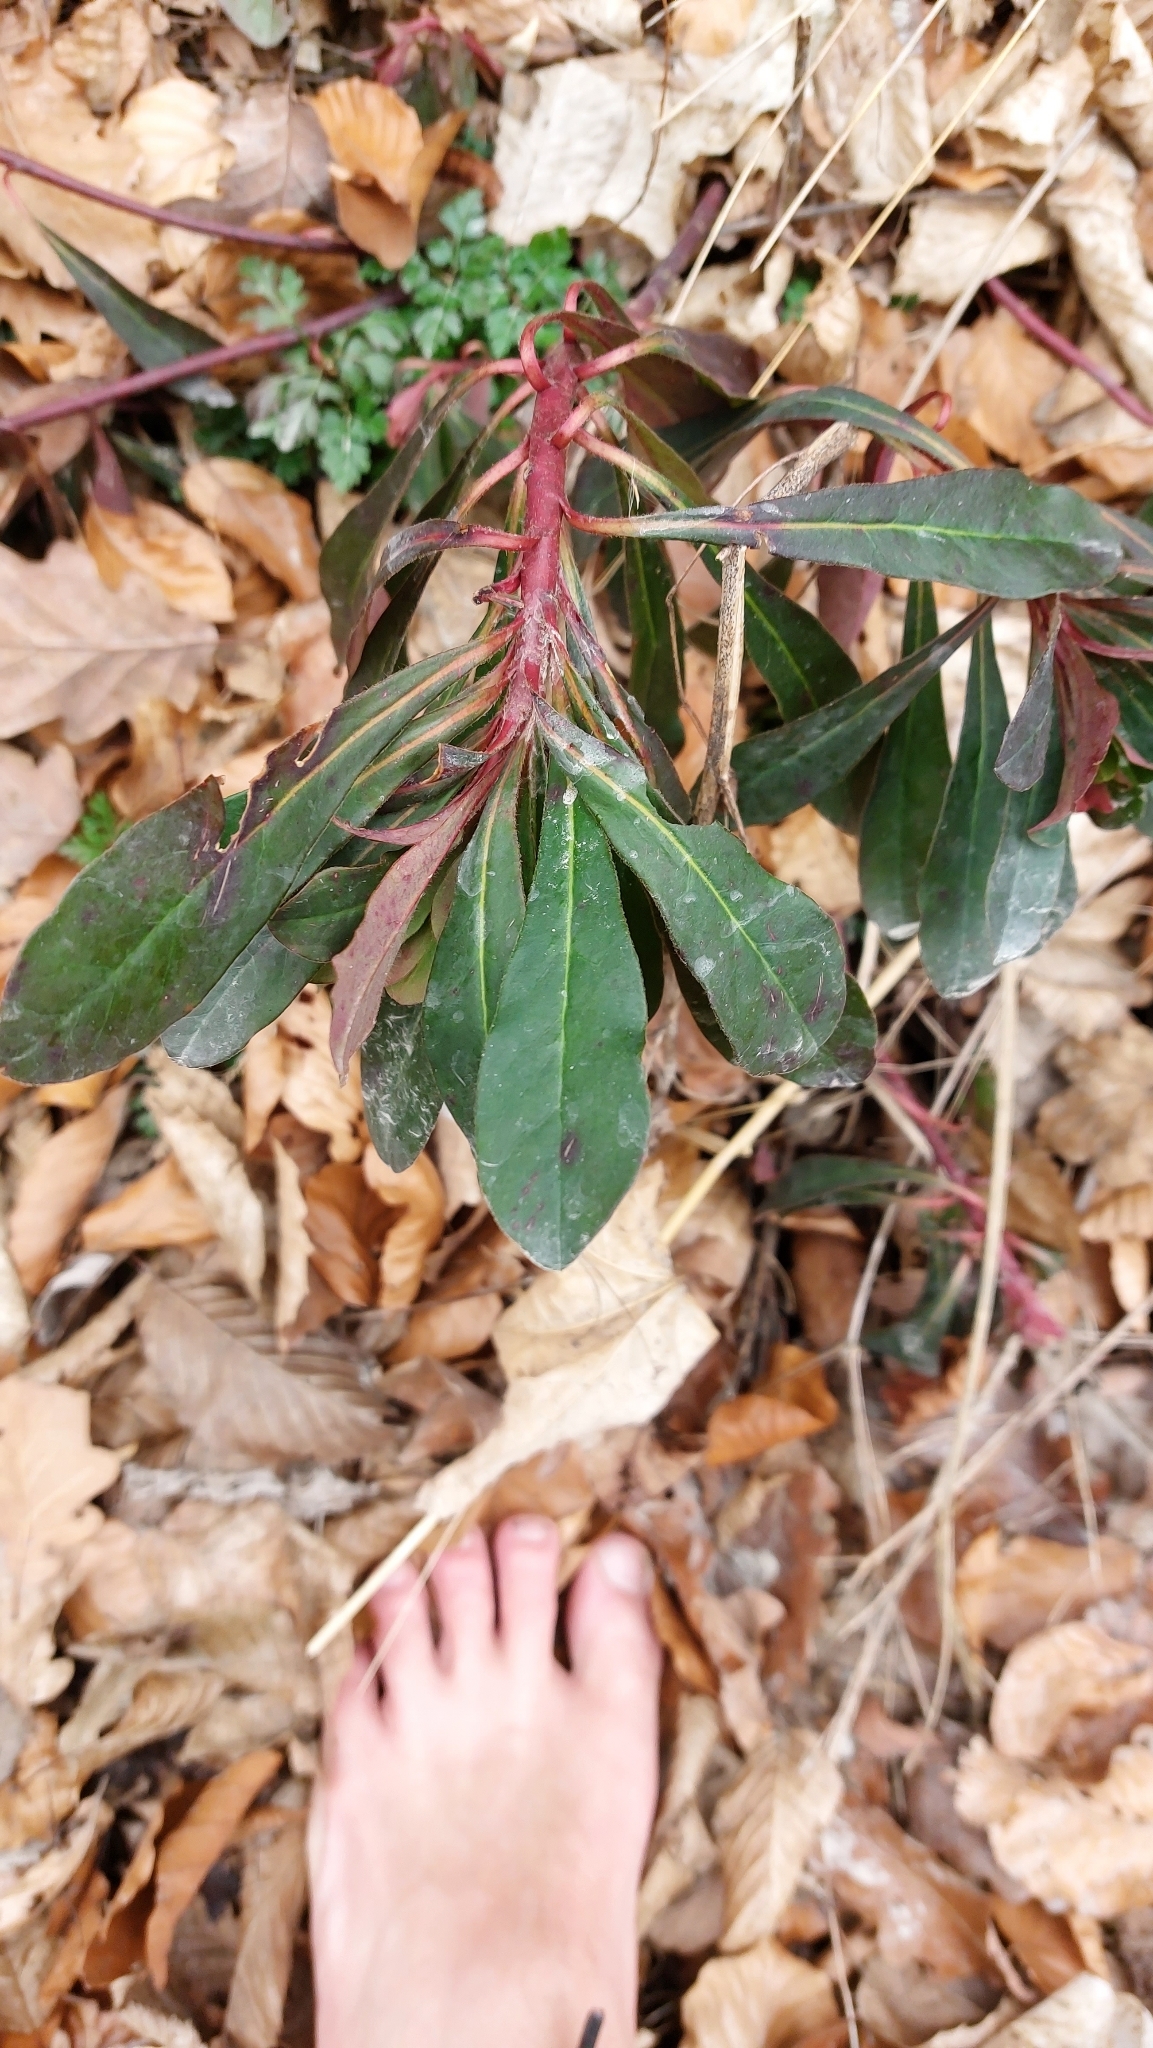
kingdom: Plantae
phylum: Tracheophyta
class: Magnoliopsida
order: Malpighiales
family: Euphorbiaceae
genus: Euphorbia
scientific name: Euphorbia amygdaloides
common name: Wood spurge
